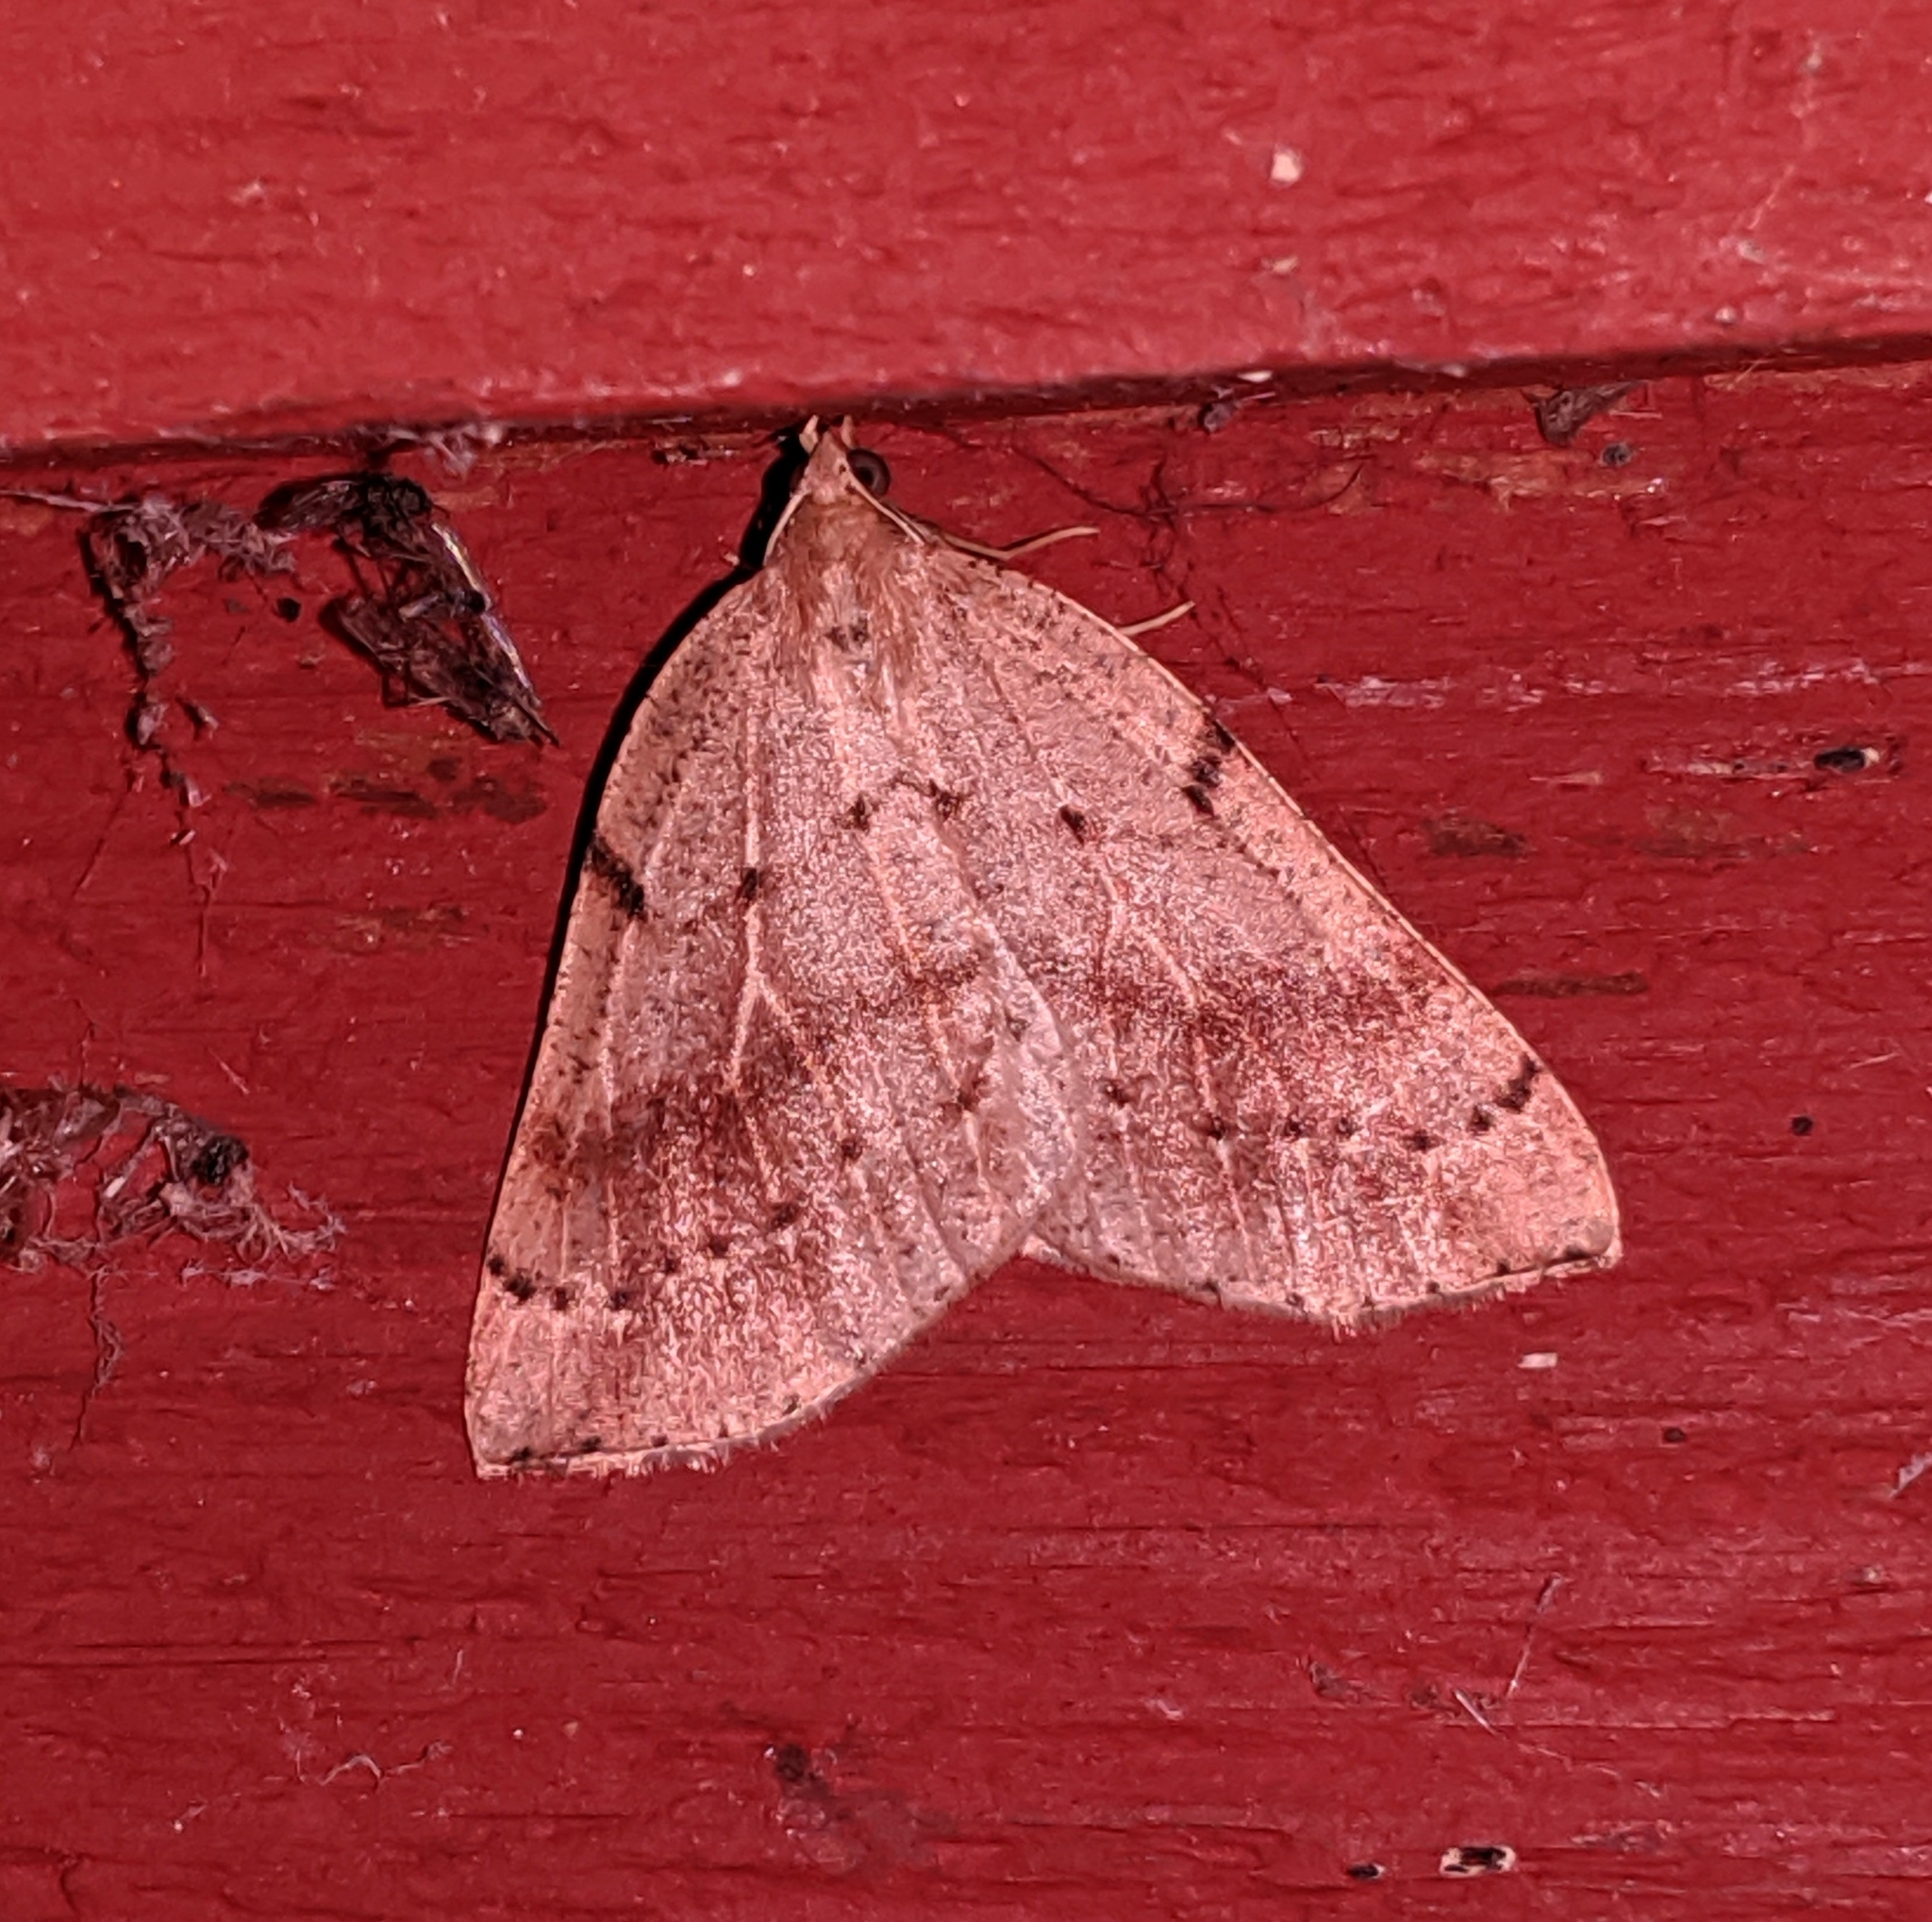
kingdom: Animalia
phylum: Arthropoda
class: Insecta
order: Lepidoptera
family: Geometridae
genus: Thallophaga
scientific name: Thallophaga hyperborea
